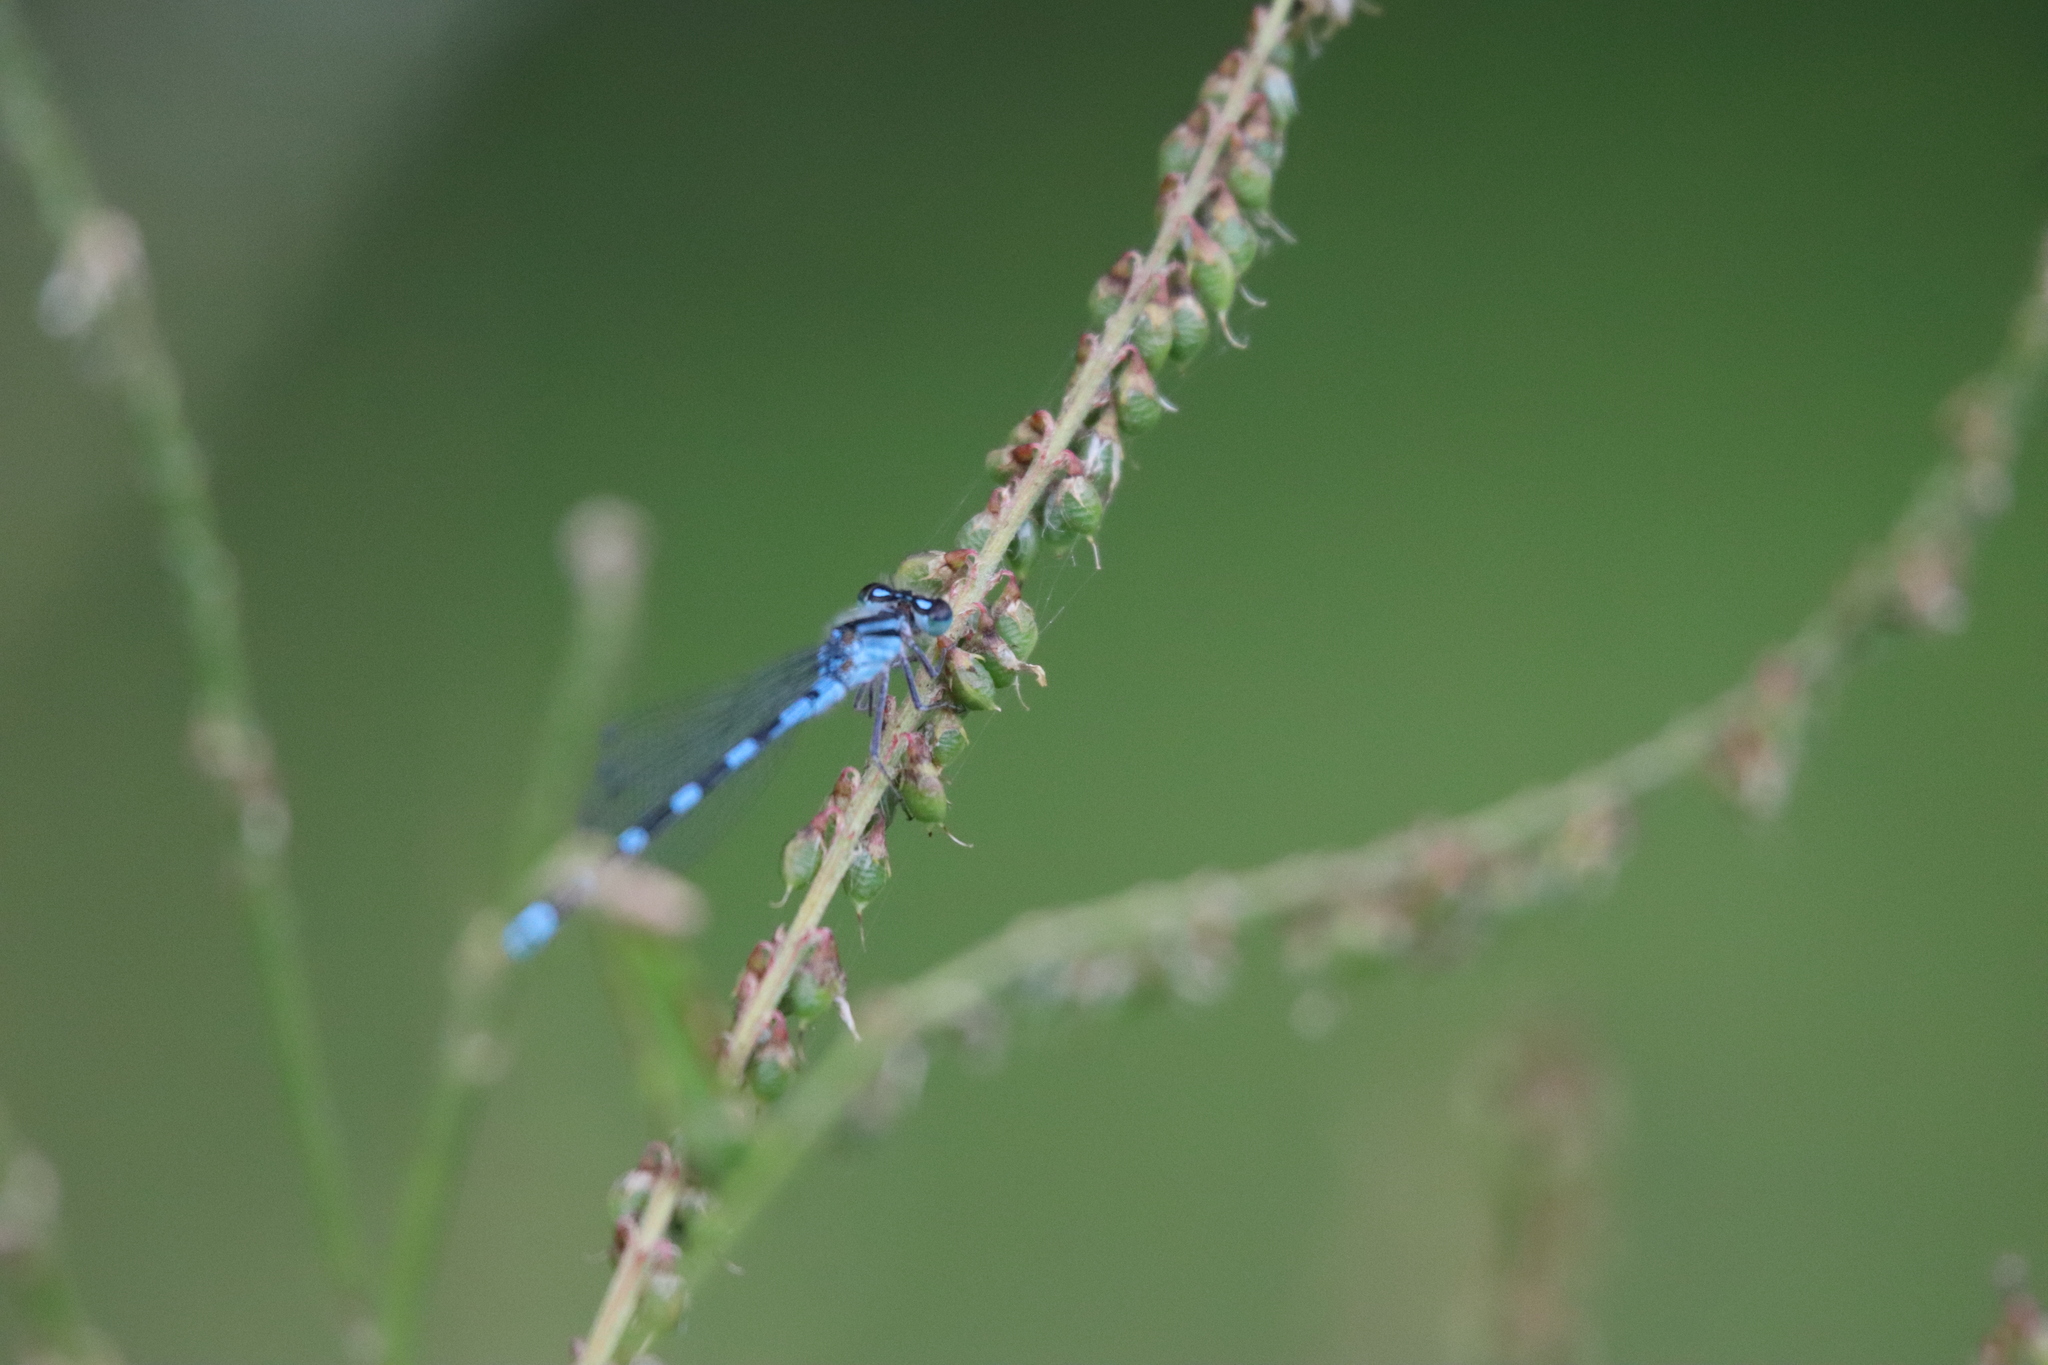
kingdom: Animalia
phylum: Arthropoda
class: Insecta
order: Odonata
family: Coenagrionidae
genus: Enallagma
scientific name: Enallagma
